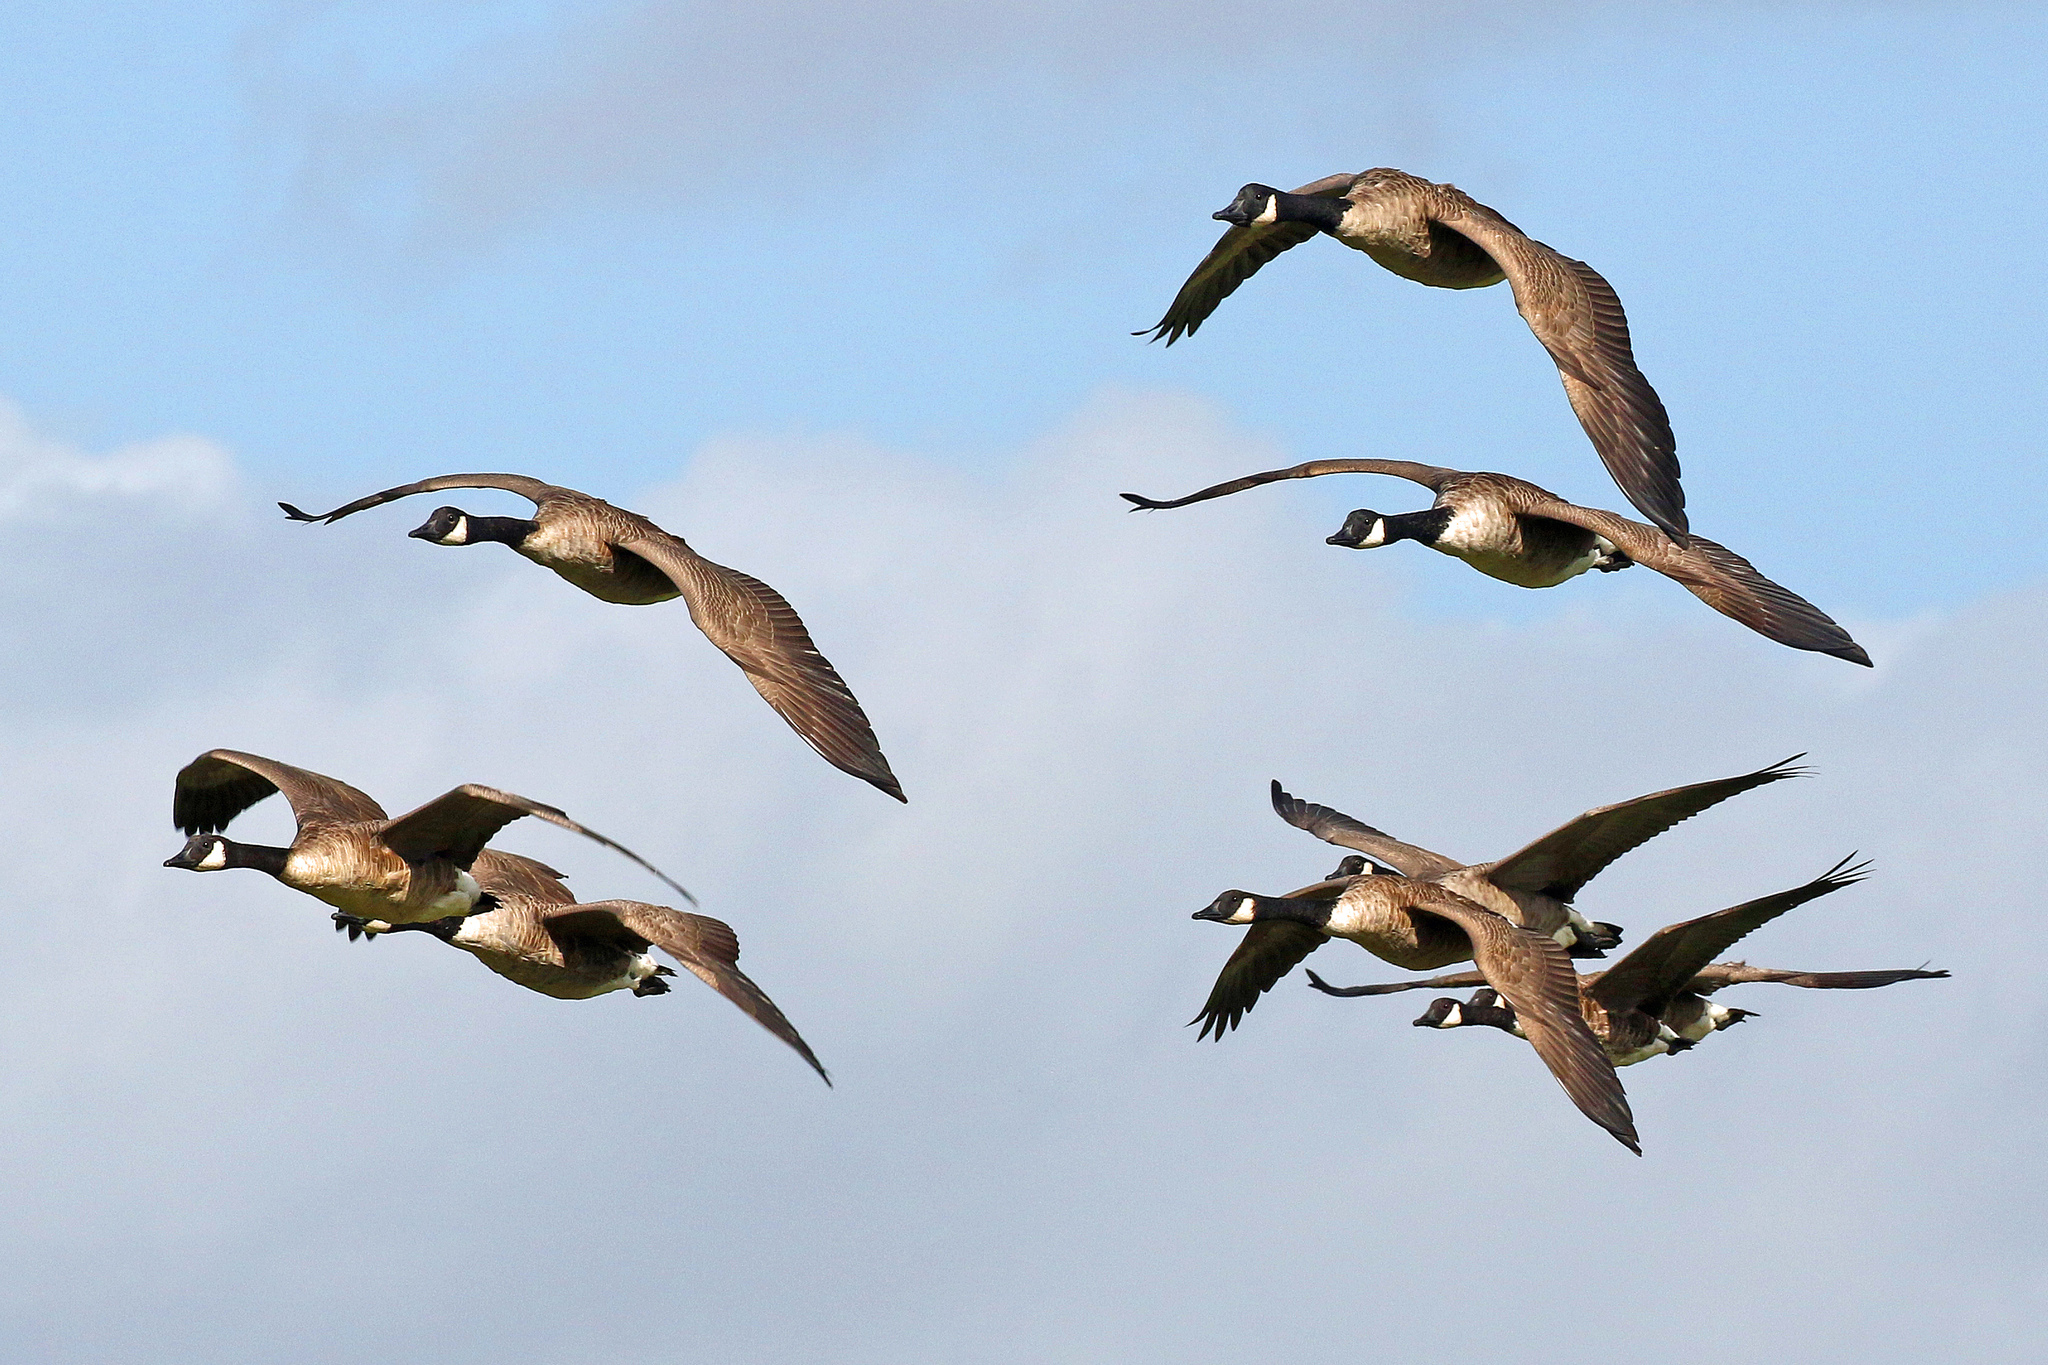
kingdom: Animalia
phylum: Chordata
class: Aves
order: Anseriformes
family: Anatidae
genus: Branta
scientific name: Branta canadensis
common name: Canada goose
